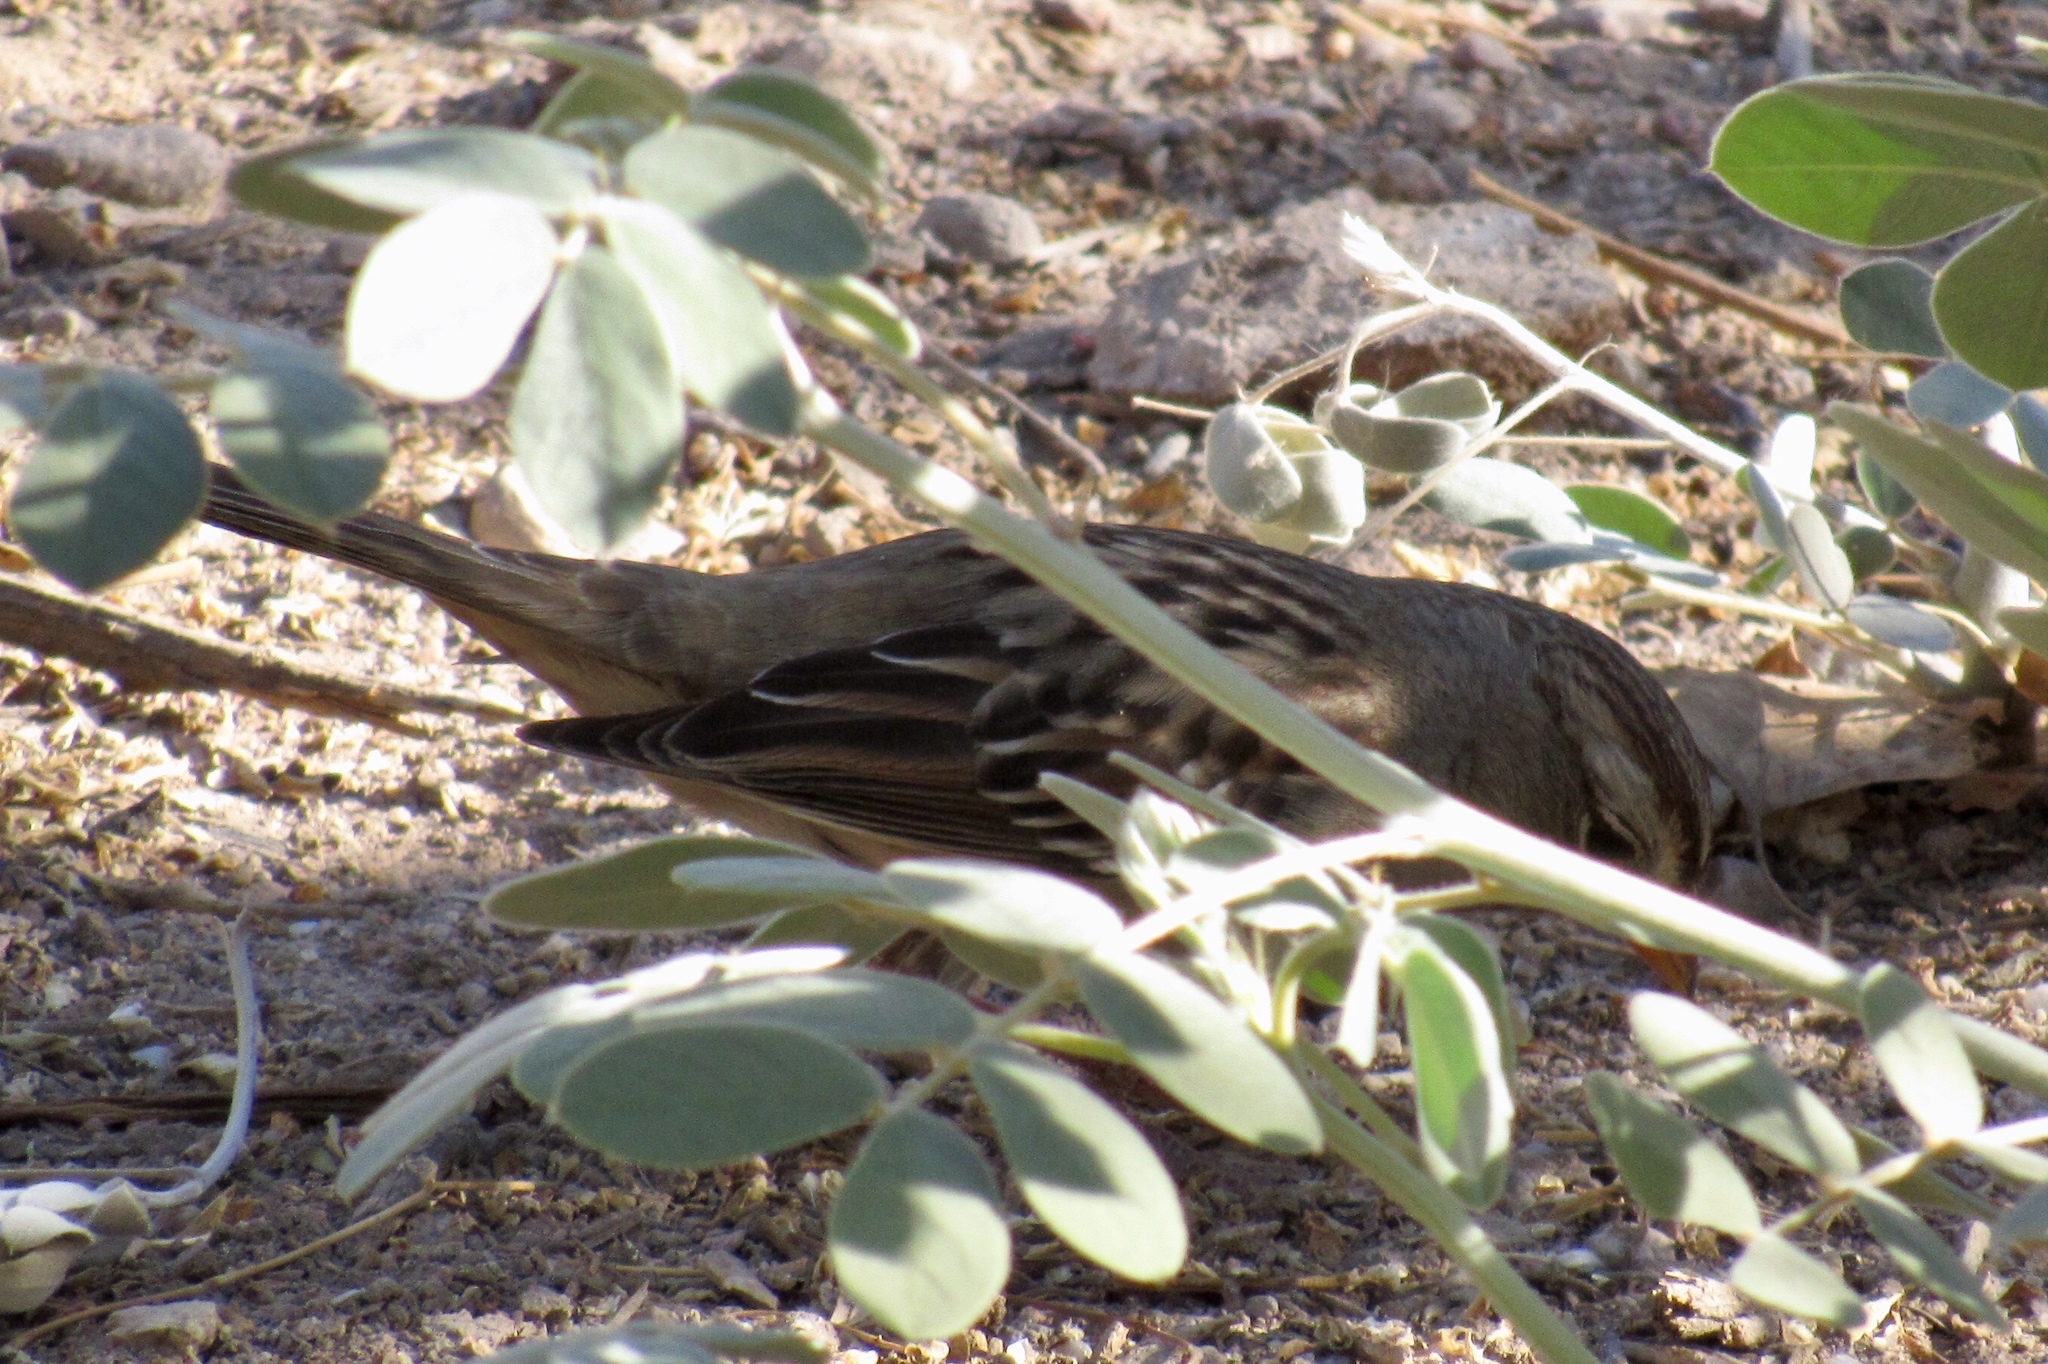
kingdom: Animalia
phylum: Chordata
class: Aves
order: Passeriformes
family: Passerellidae
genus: Zonotrichia
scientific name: Zonotrichia leucophrys
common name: White-crowned sparrow
